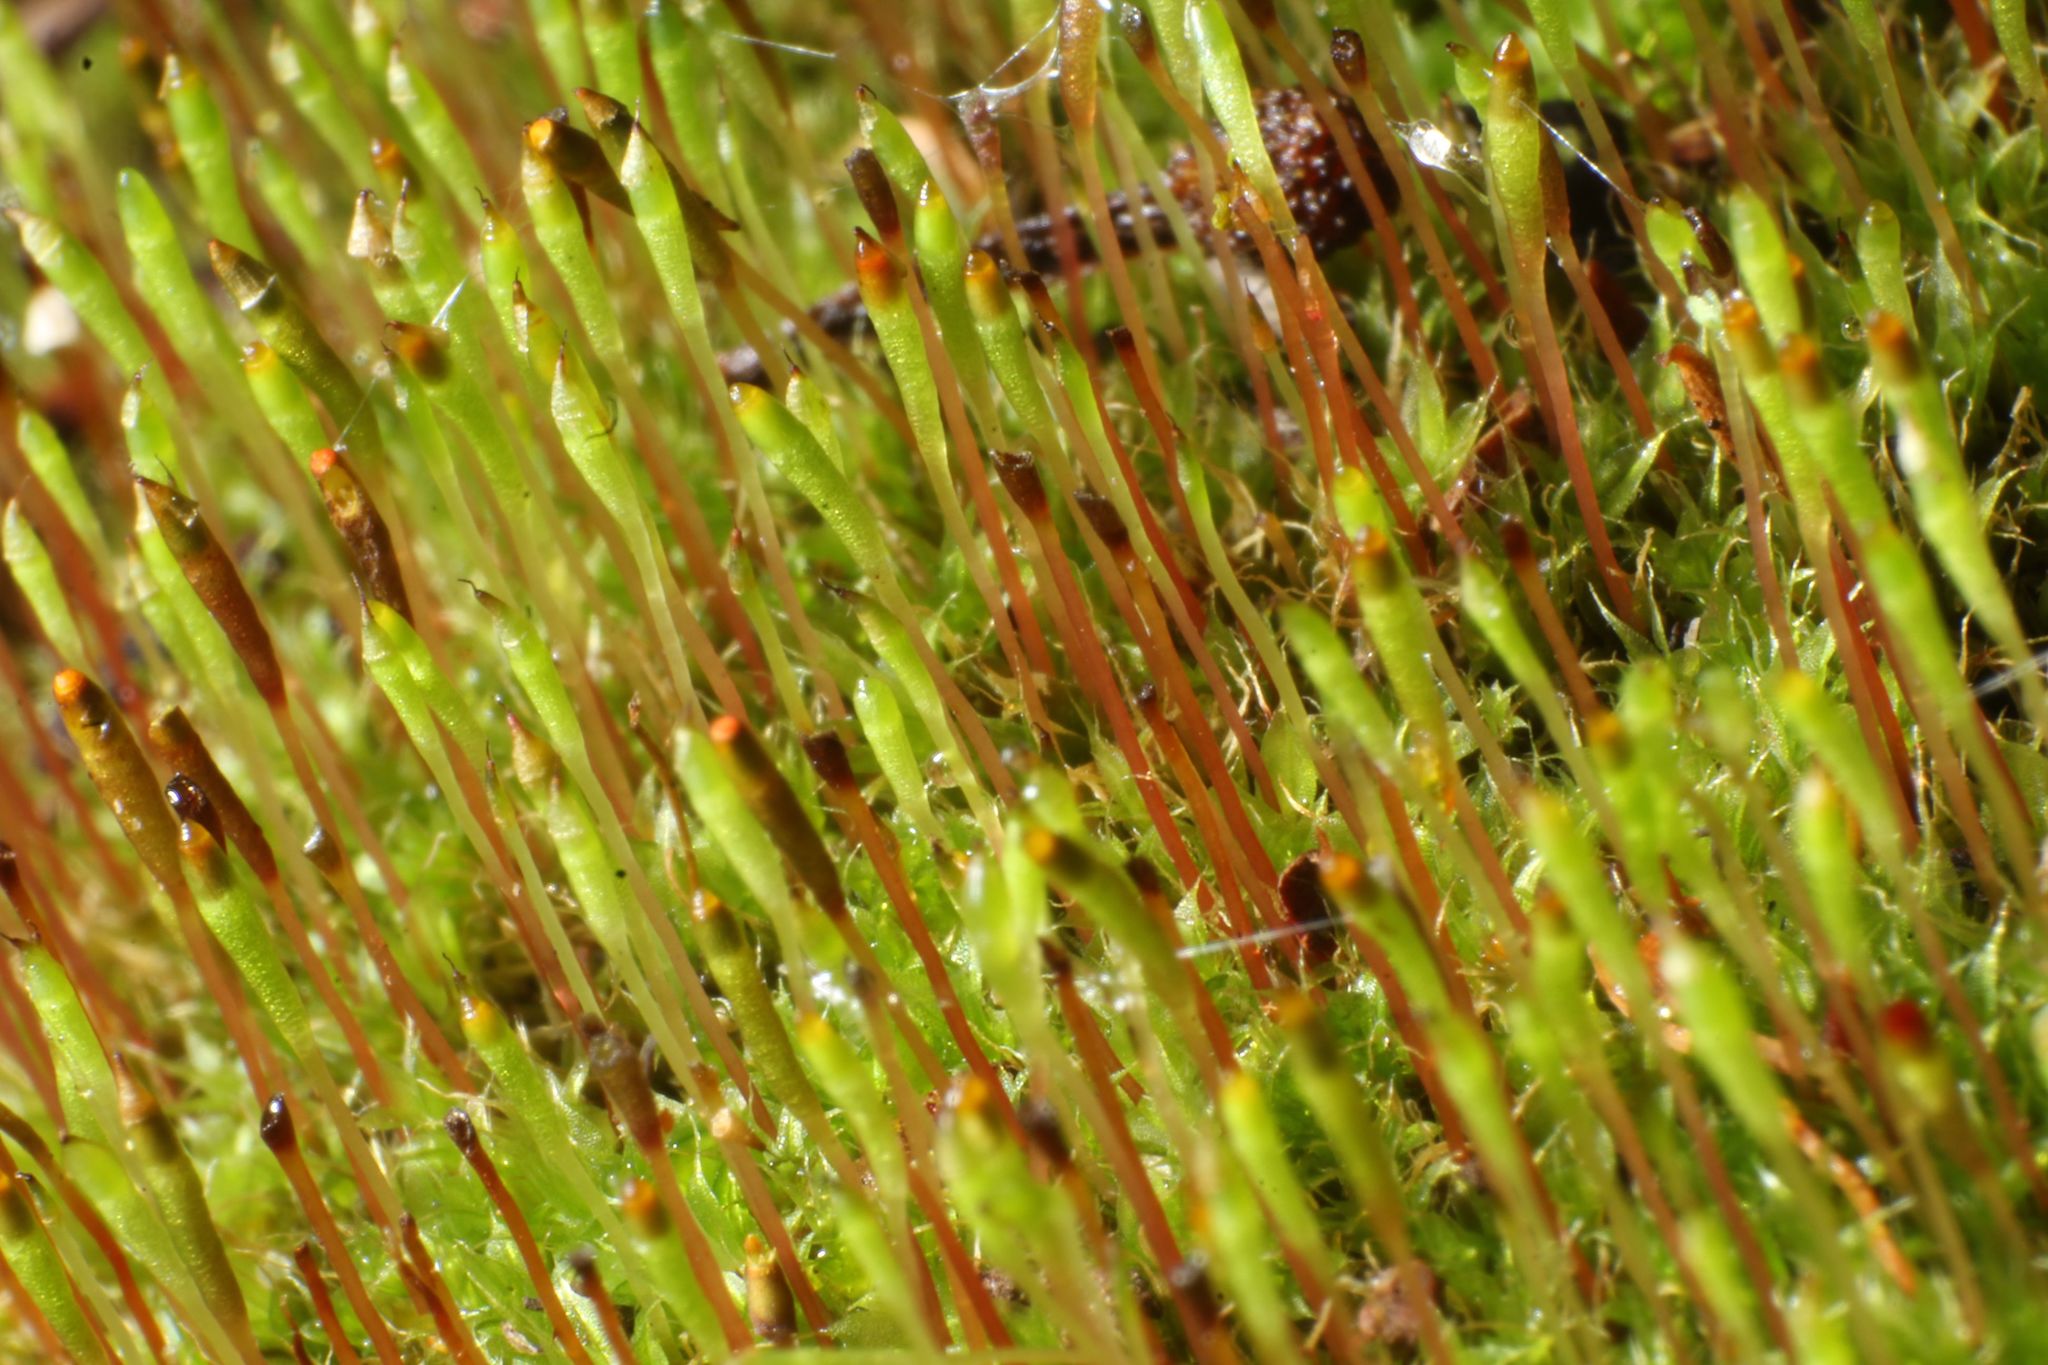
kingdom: Plantae
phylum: Bryophyta
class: Bryopsida
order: Splachnales
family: Splachnaceae
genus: Tayloria
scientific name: Tayloria octoblephara
